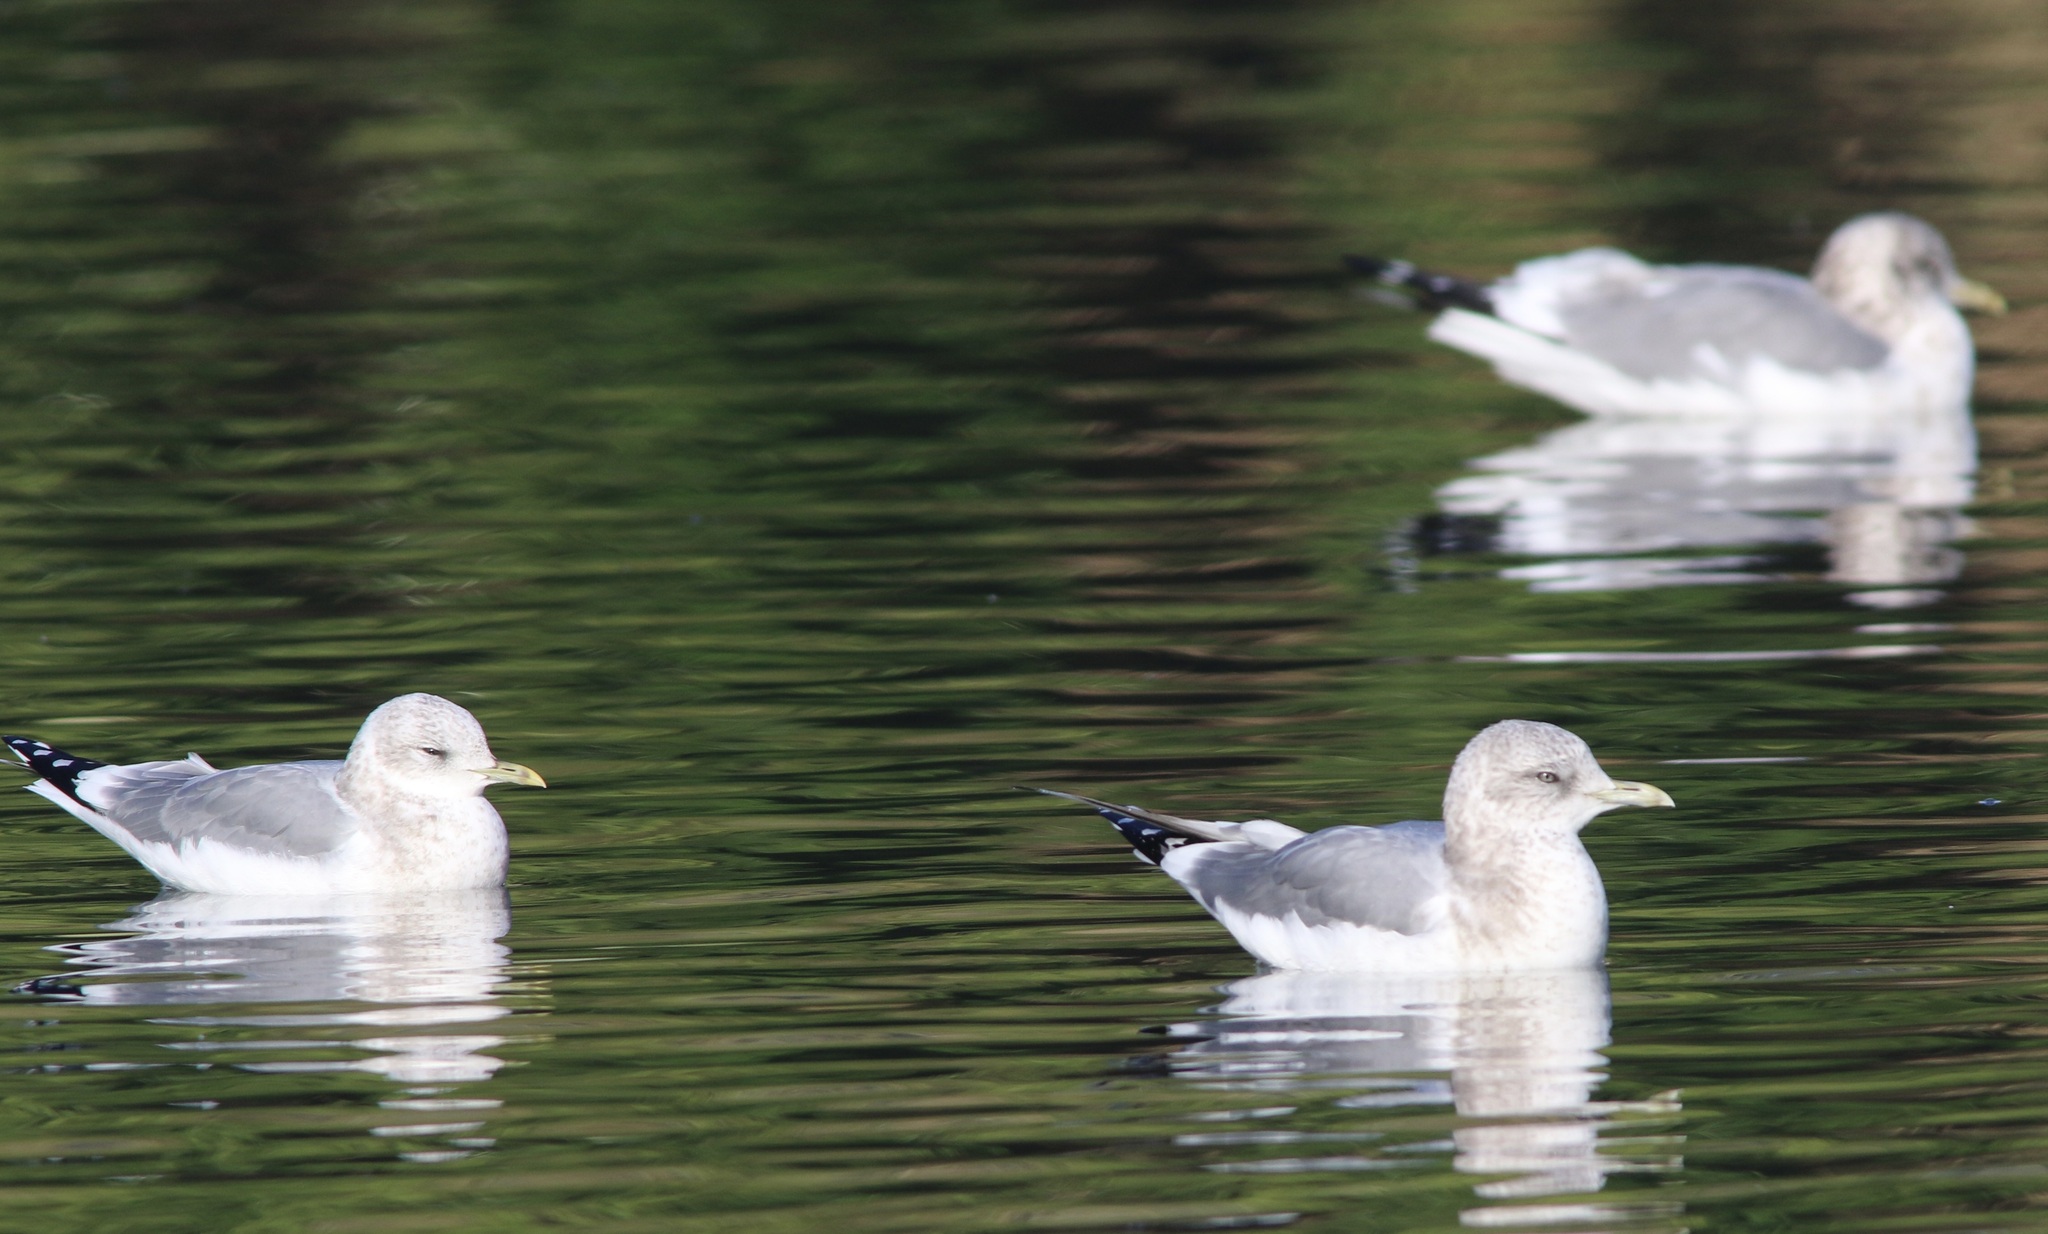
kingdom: Animalia
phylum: Chordata
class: Aves
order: Charadriiformes
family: Laridae
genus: Larus
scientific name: Larus brachyrhynchus
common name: Short-billed gull
